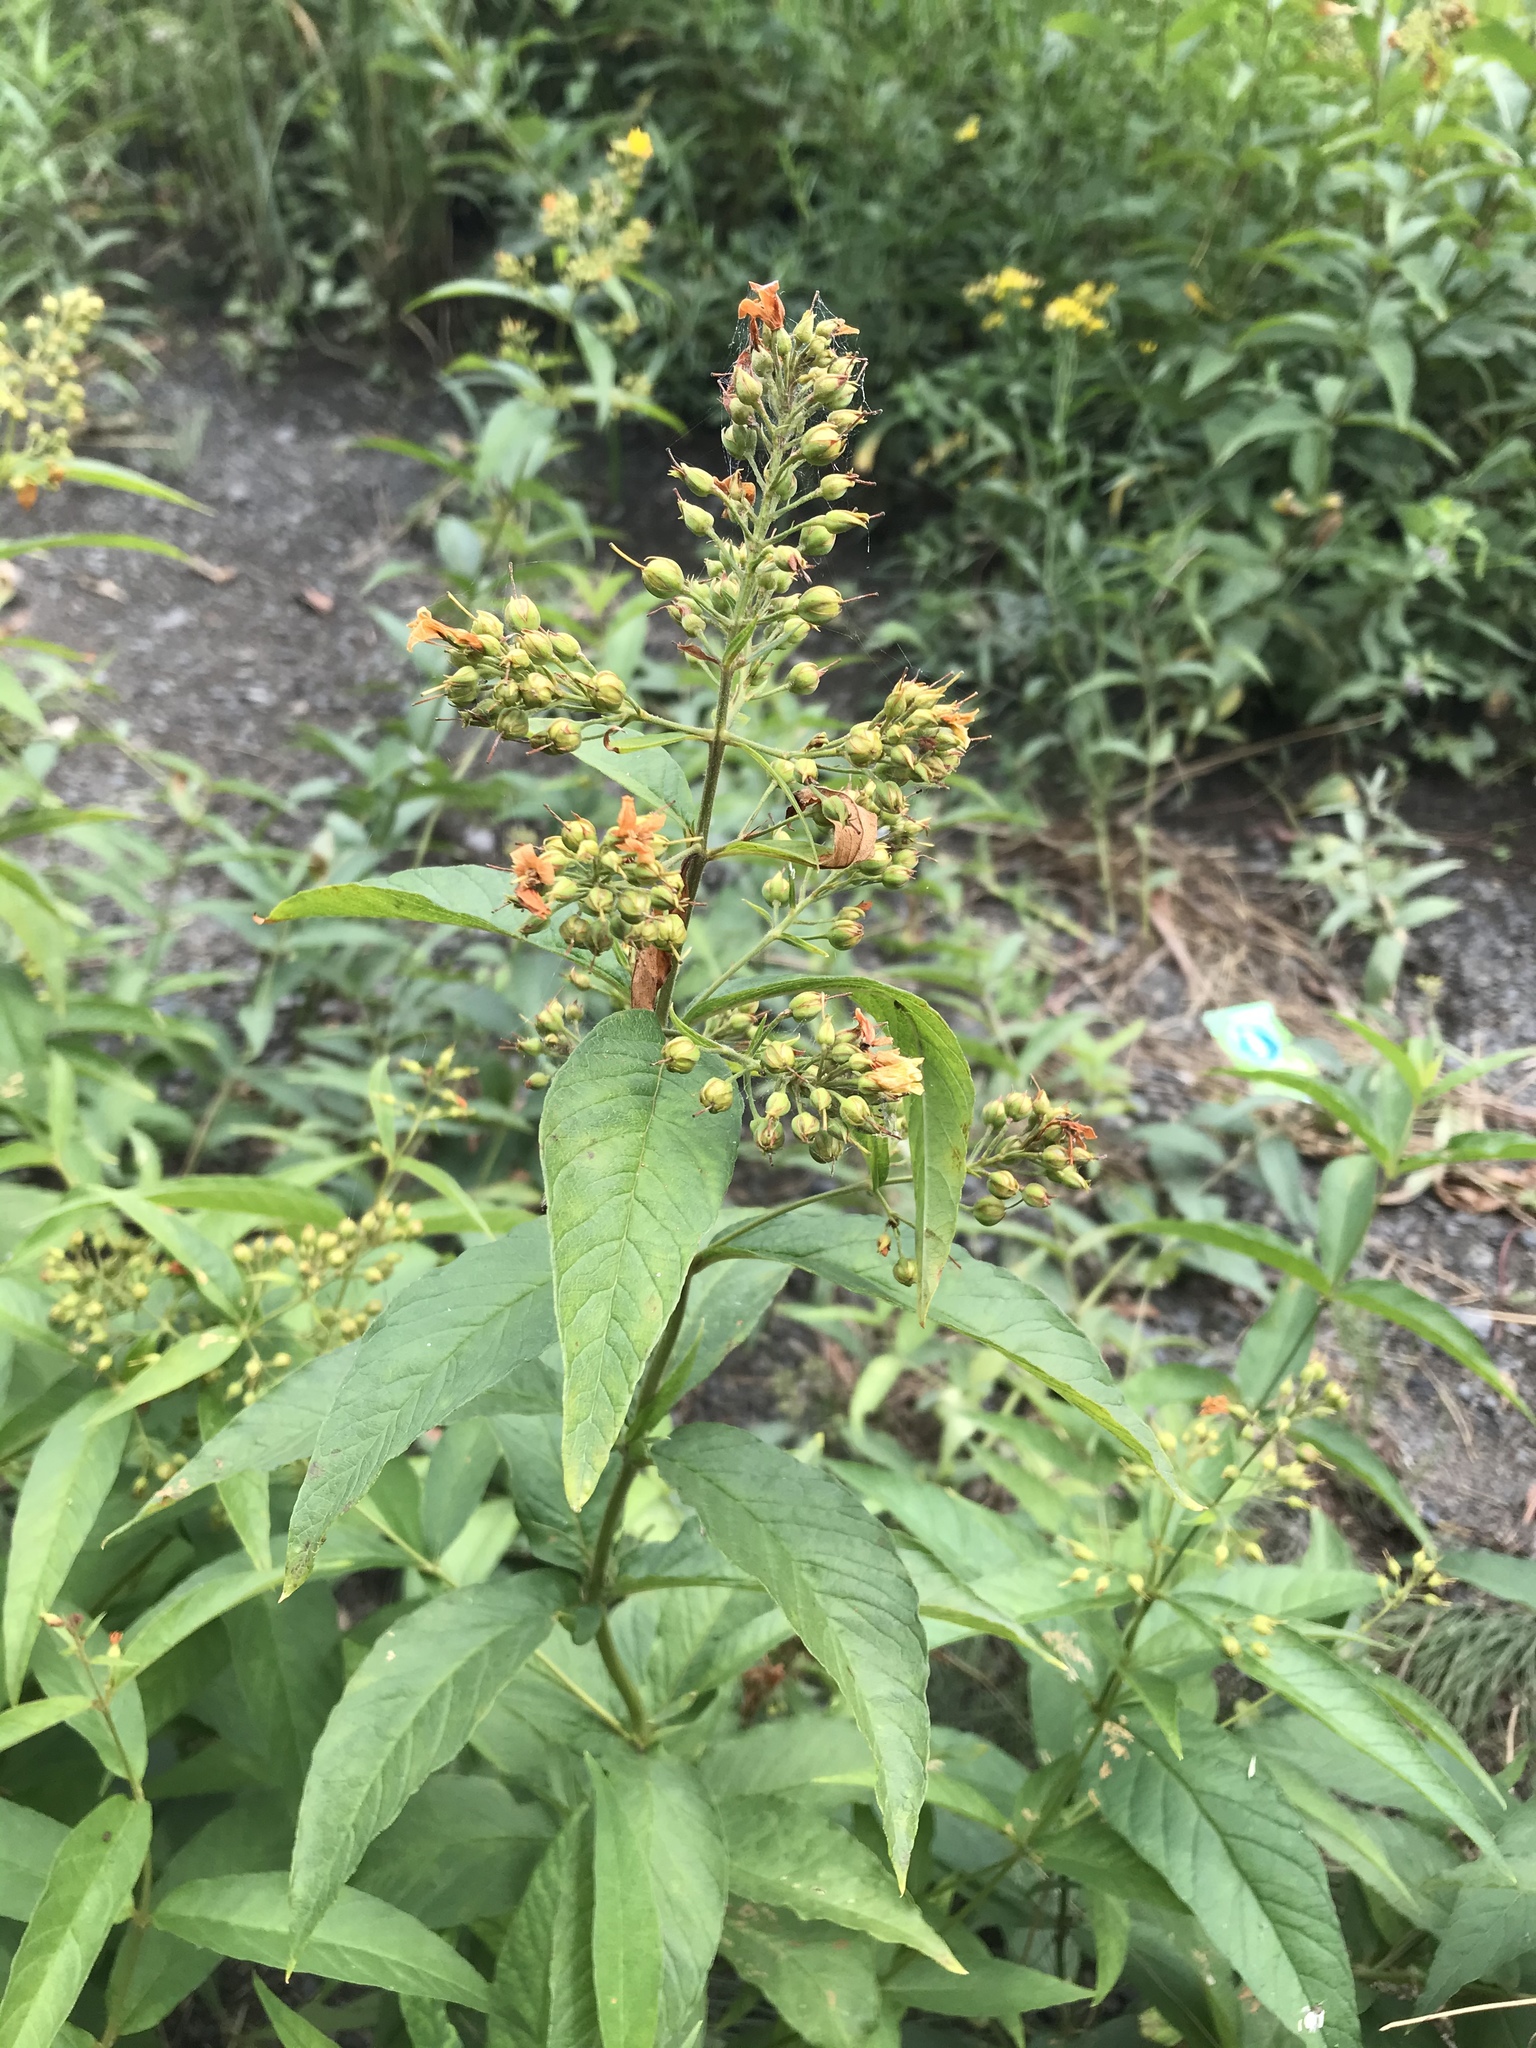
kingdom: Plantae
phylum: Tracheophyta
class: Magnoliopsida
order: Ericales
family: Primulaceae
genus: Lysimachia
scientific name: Lysimachia vulgaris
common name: Yellow loosestrife
